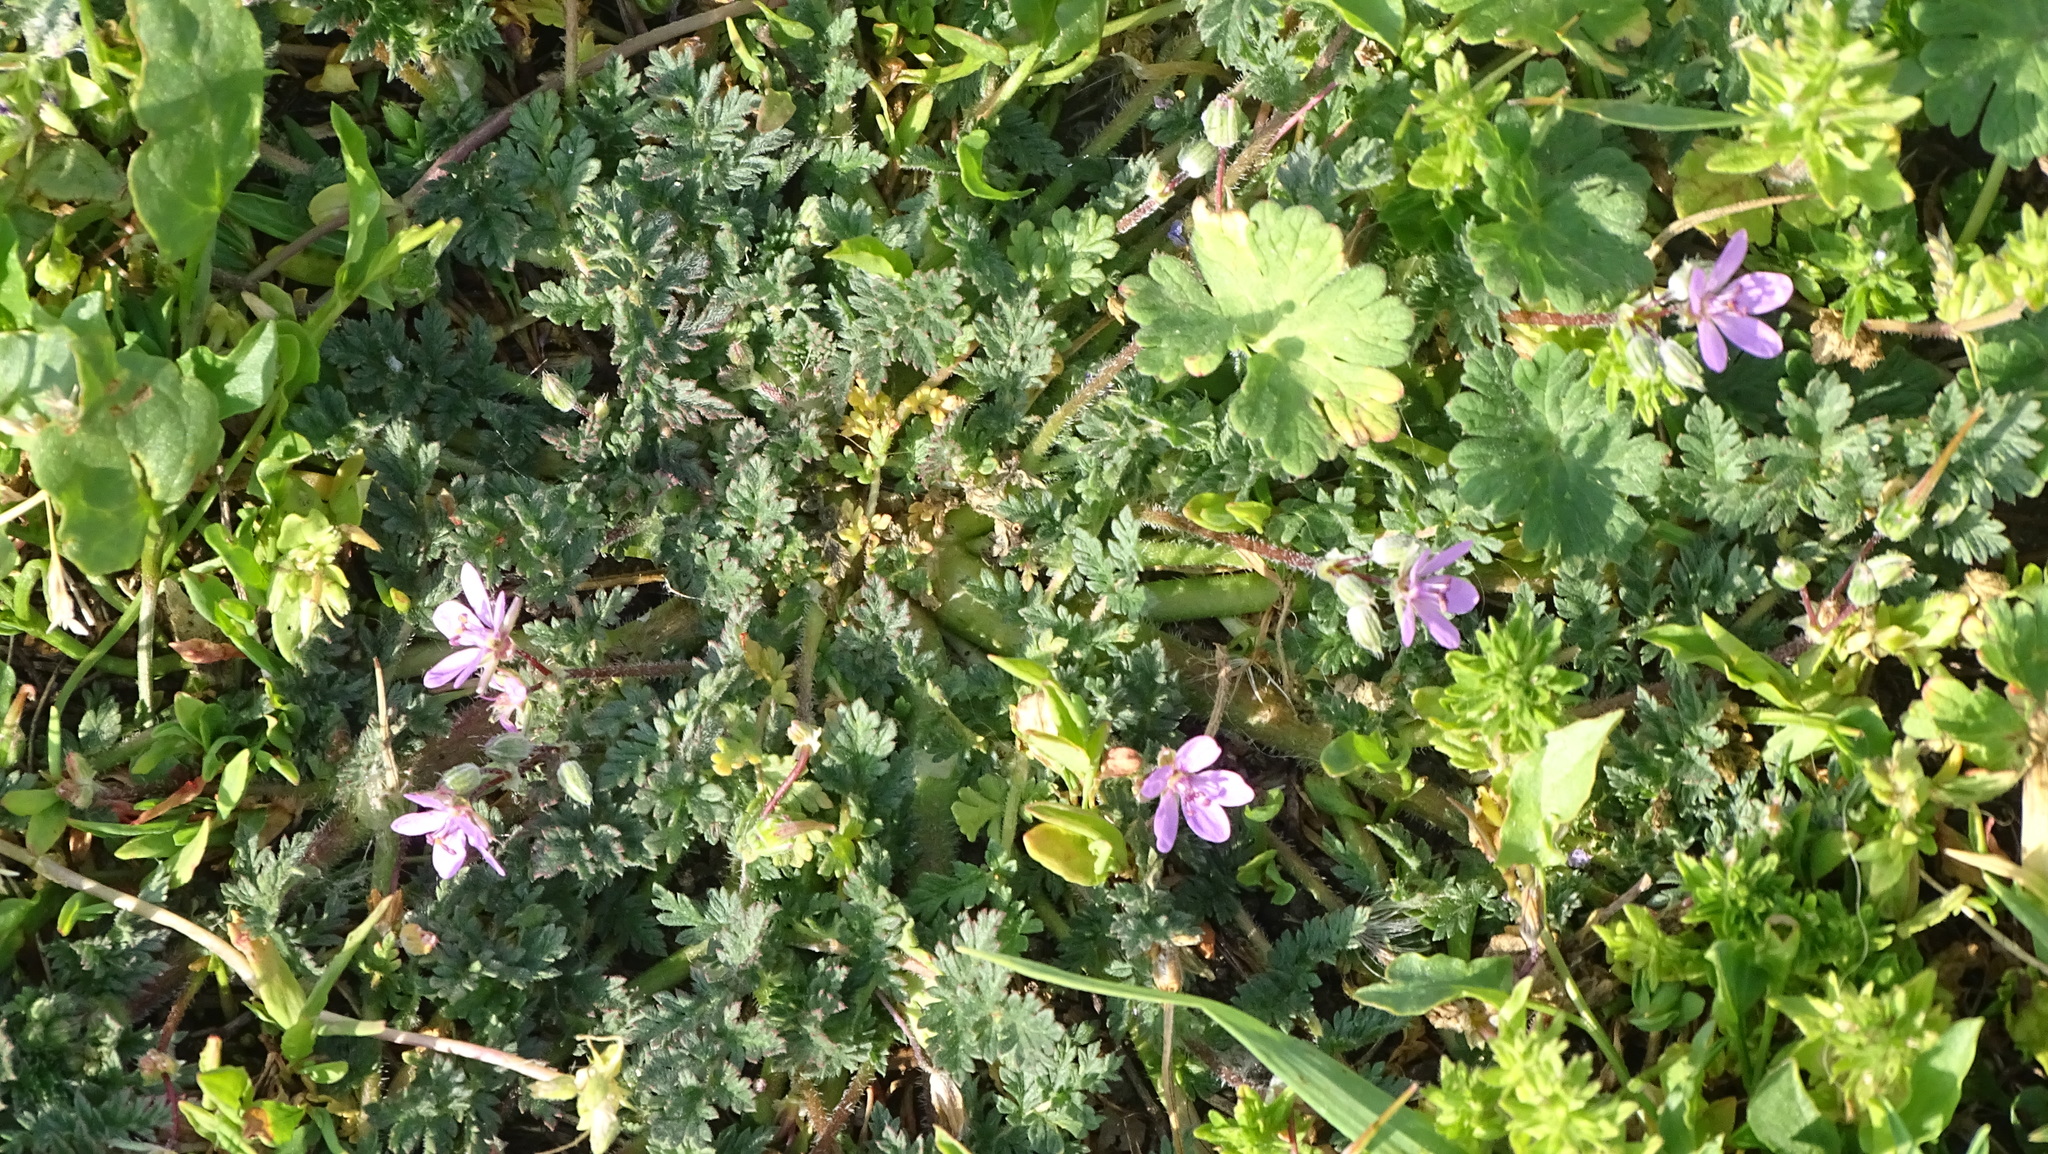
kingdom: Plantae
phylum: Tracheophyta
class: Magnoliopsida
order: Geraniales
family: Geraniaceae
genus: Erodium
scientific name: Erodium cicutarium
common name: Common stork's-bill
